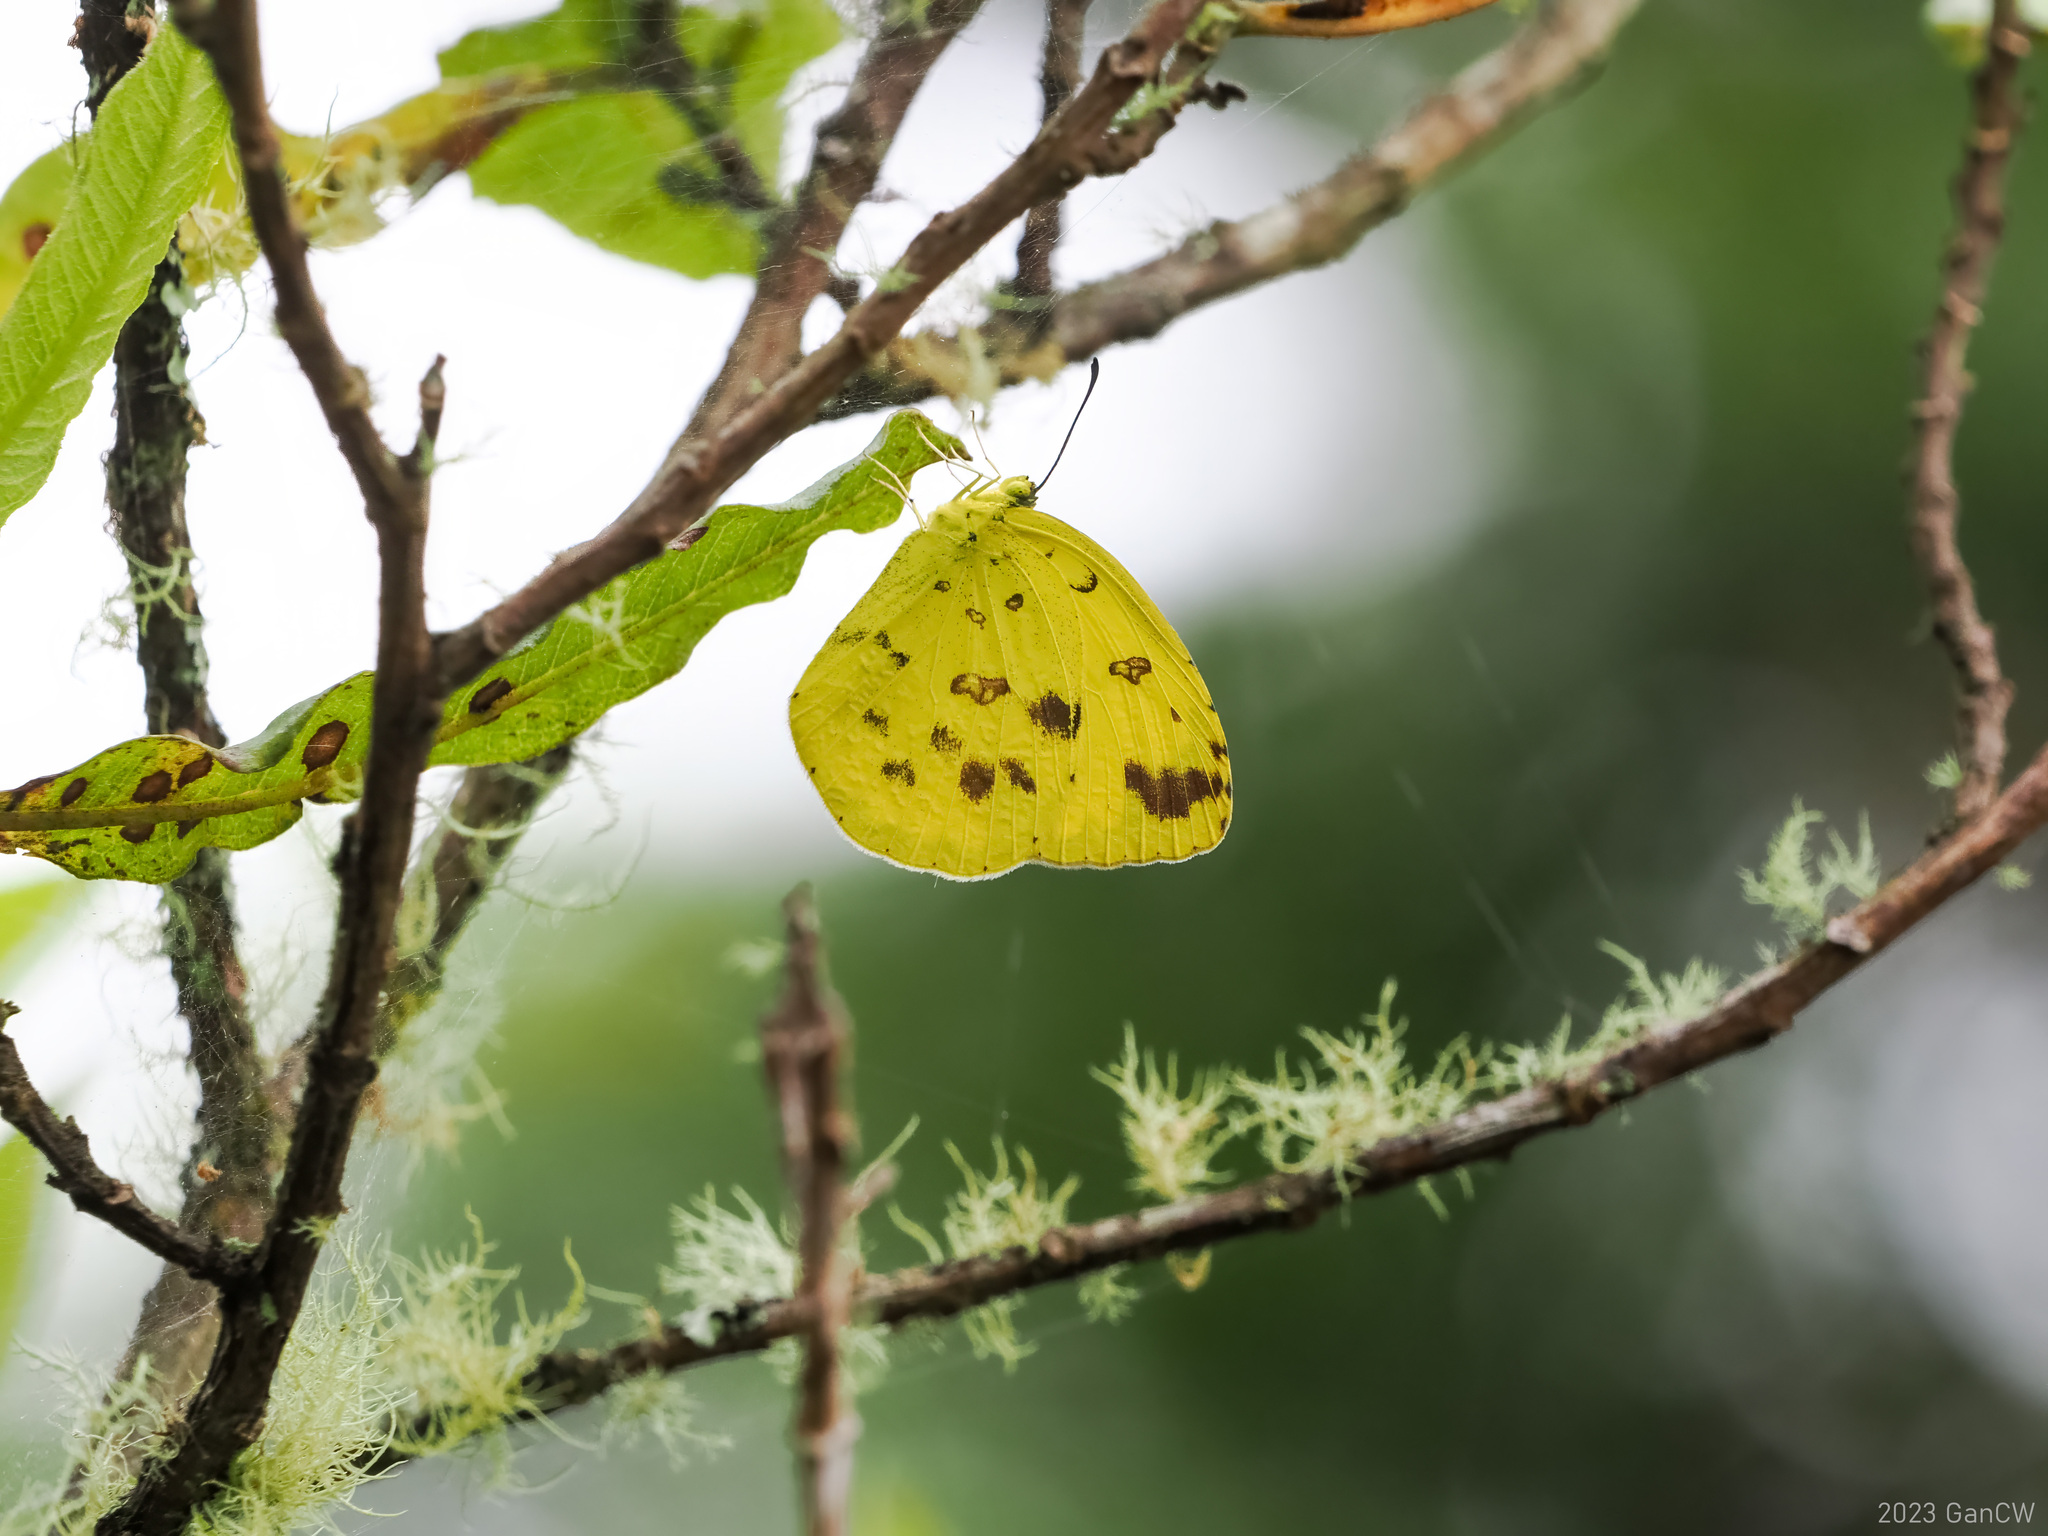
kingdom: Animalia
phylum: Arthropoda
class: Insecta
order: Lepidoptera
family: Pieridae
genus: Eurema
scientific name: Eurema hecabe
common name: Pale grass yellow
